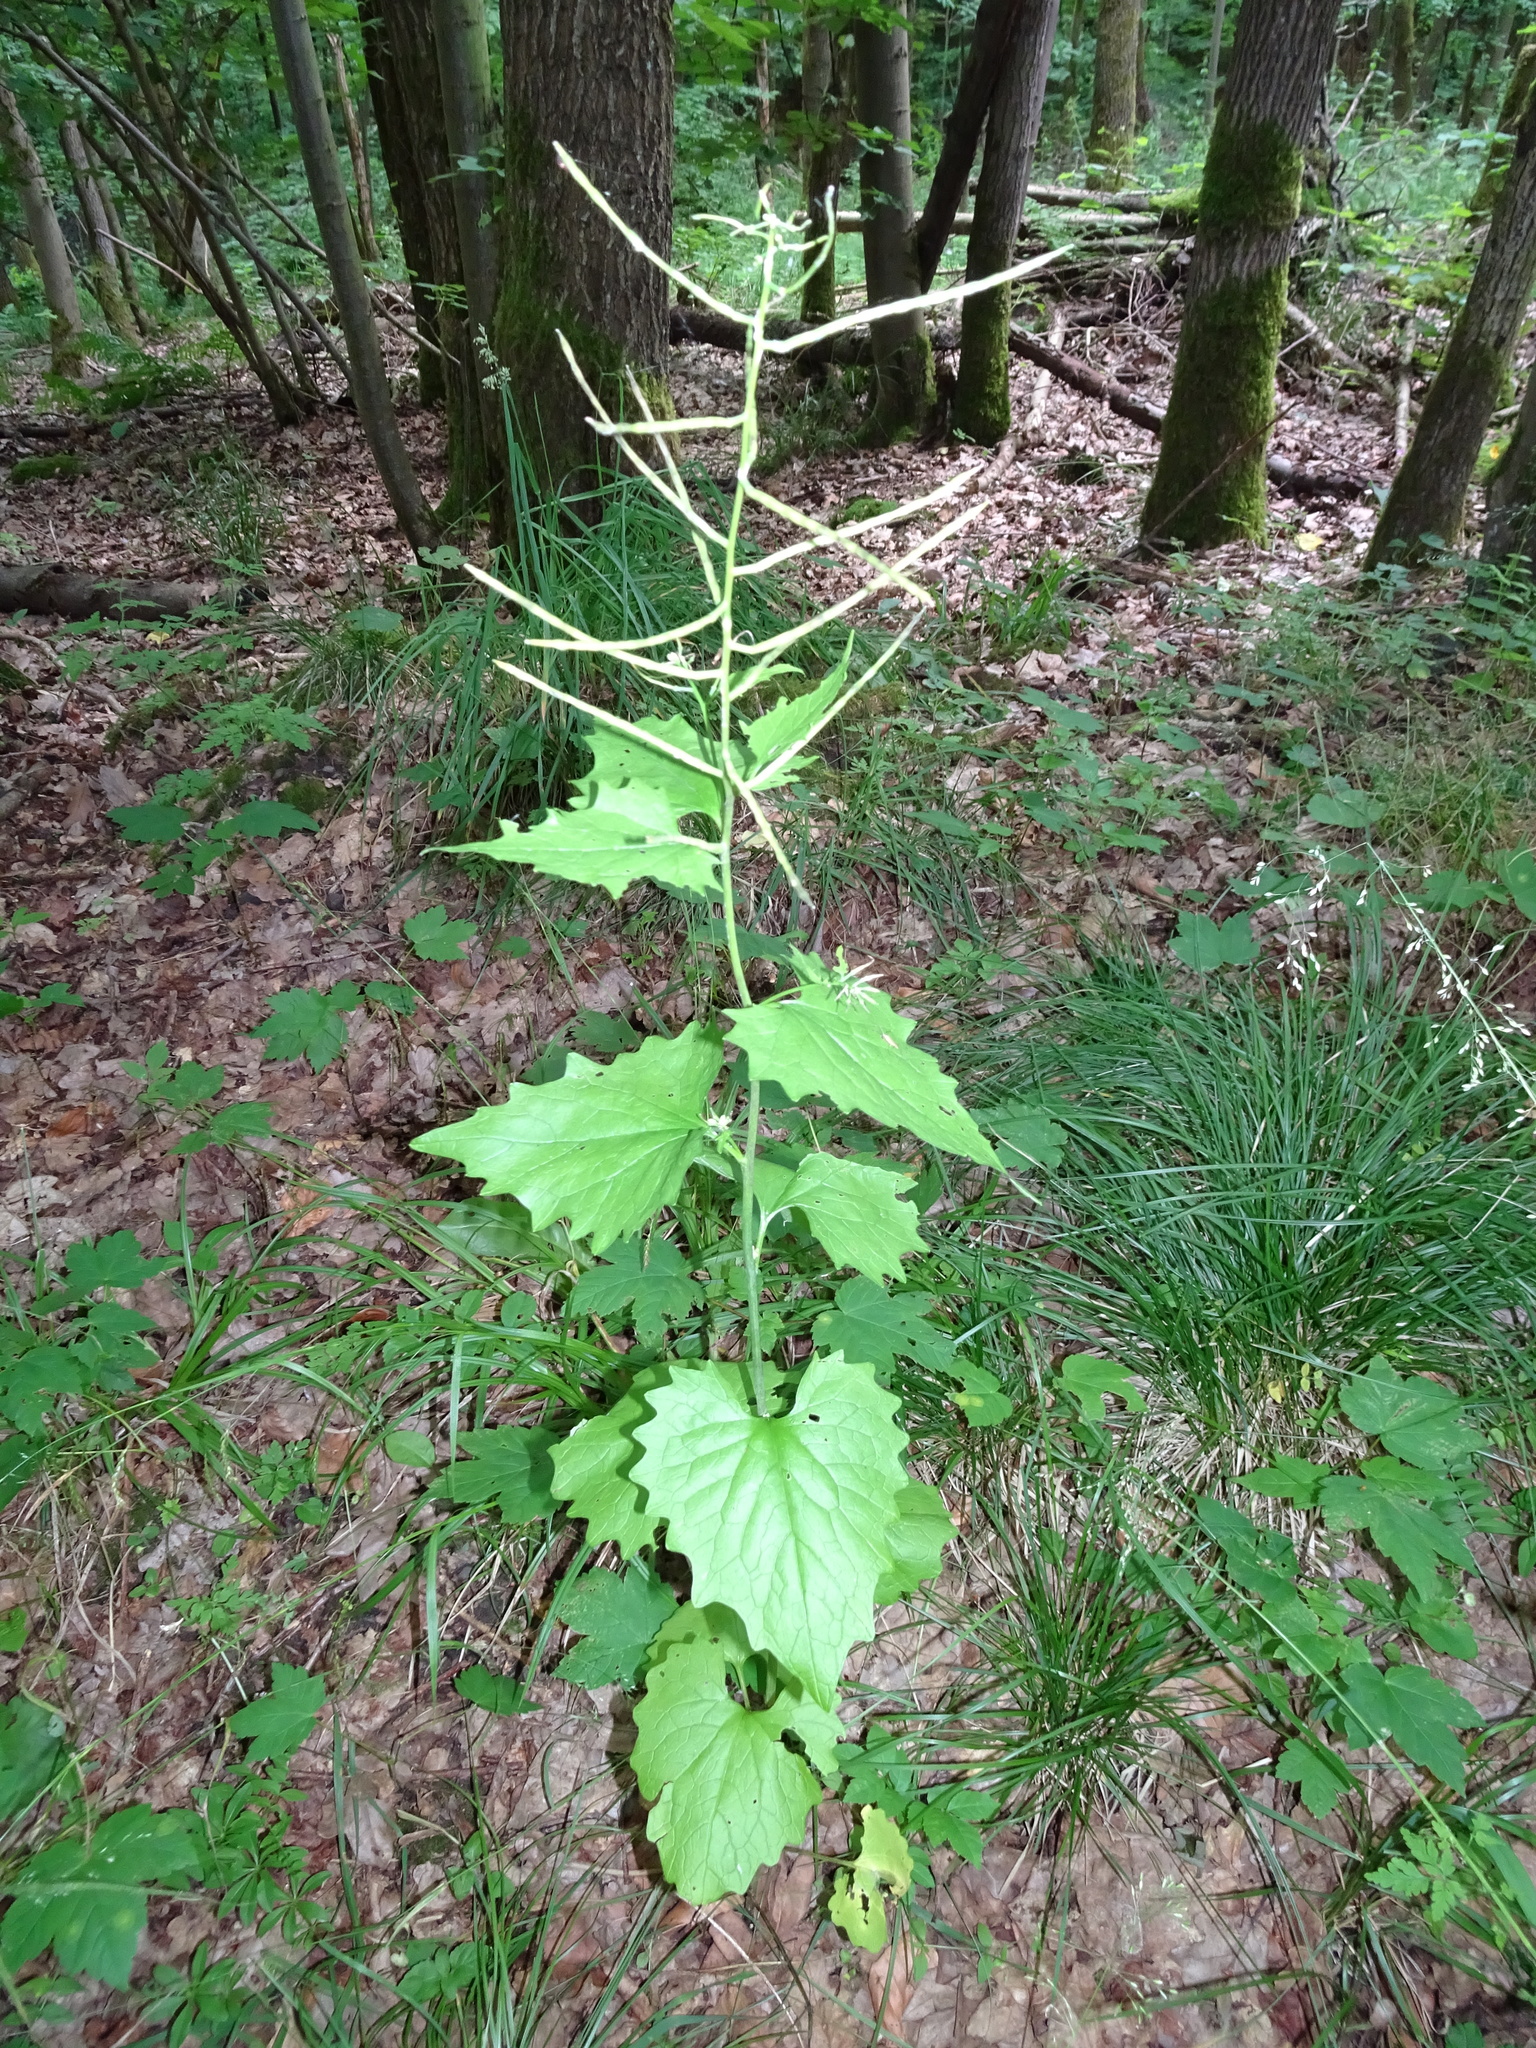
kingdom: Plantae
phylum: Tracheophyta
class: Magnoliopsida
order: Brassicales
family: Brassicaceae
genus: Alliaria
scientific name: Alliaria petiolata
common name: Garlic mustard
